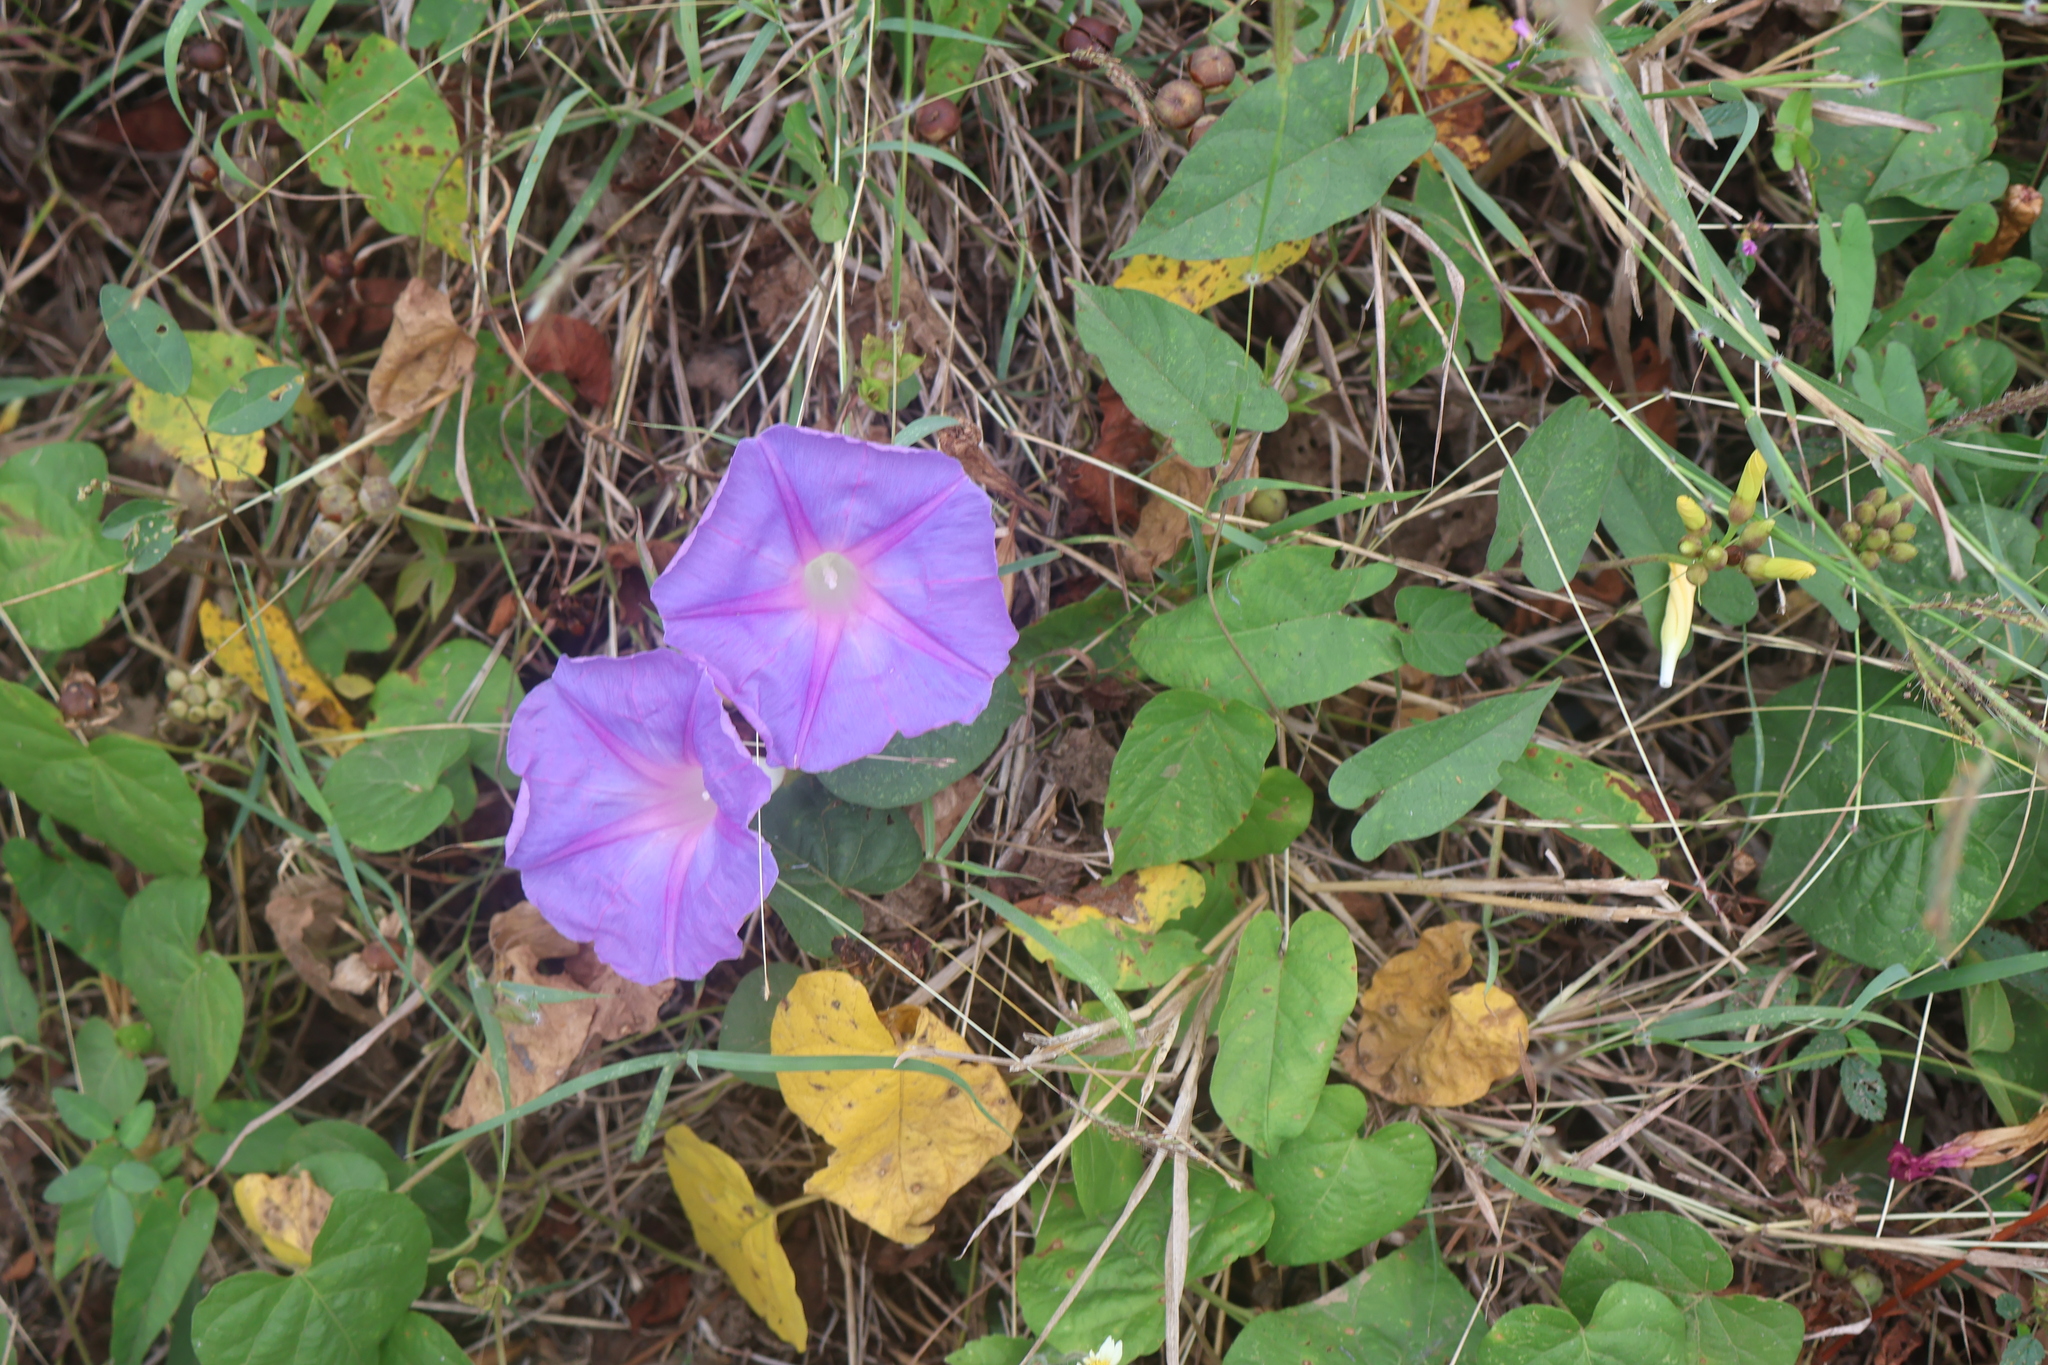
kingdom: Plantae
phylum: Tracheophyta
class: Magnoliopsida
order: Solanales
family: Convolvulaceae
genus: Ipomoea
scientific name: Ipomoea indica
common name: Blue dawnflower
